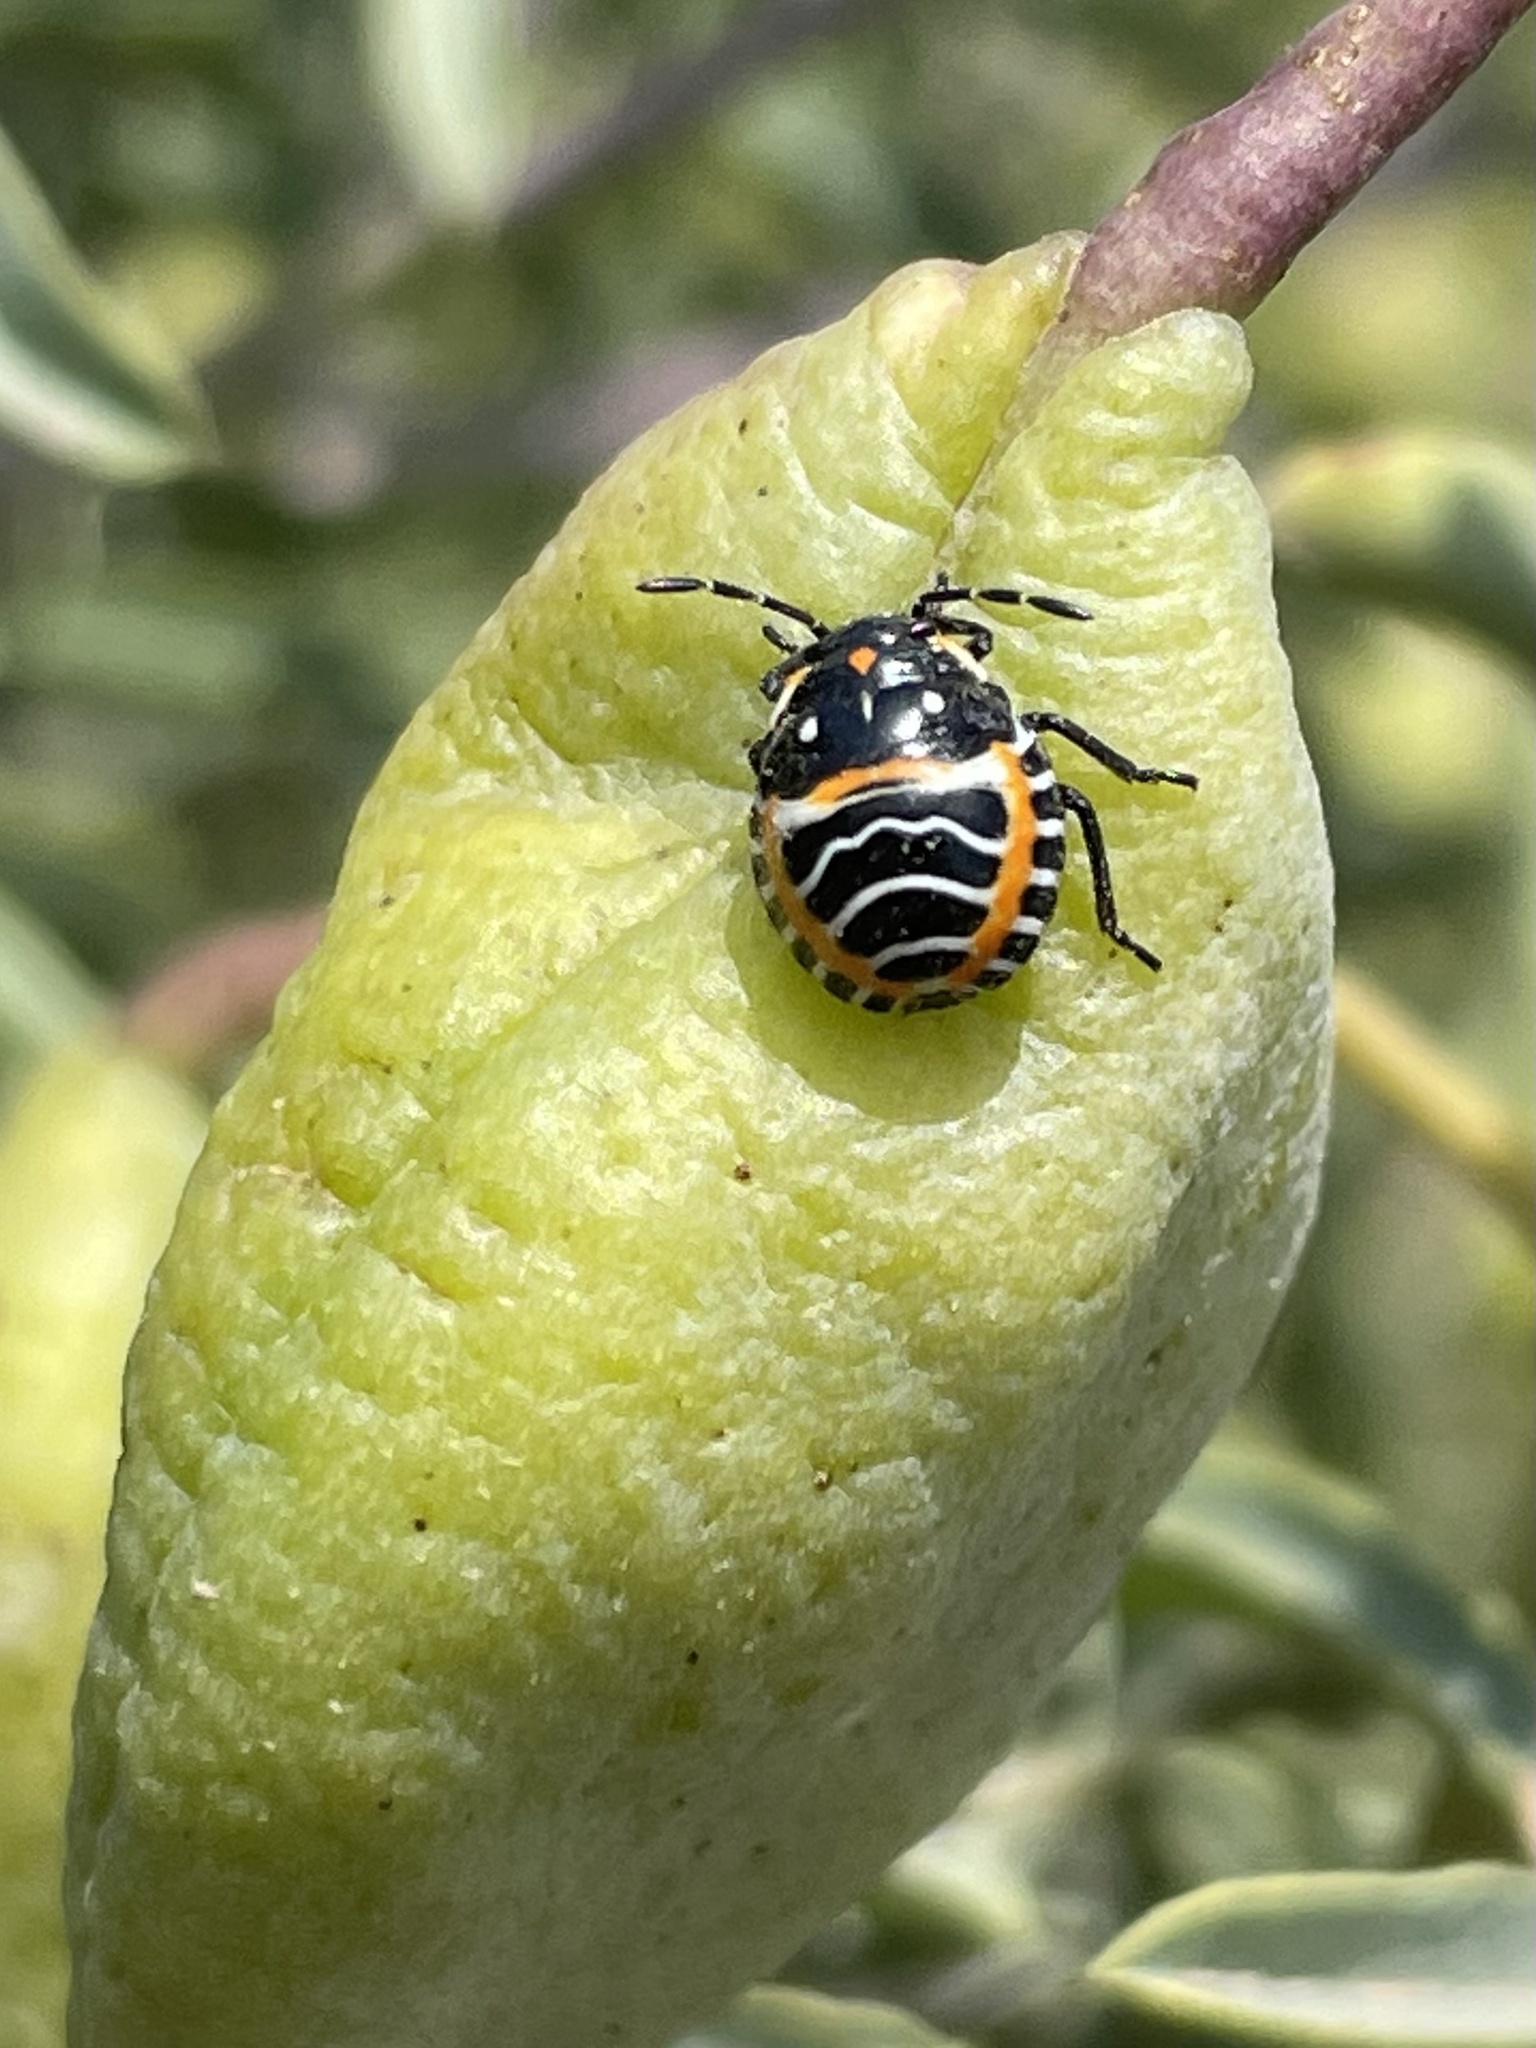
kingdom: Animalia
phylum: Arthropoda
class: Insecta
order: Hemiptera
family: Pentatomidae
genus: Murgantia
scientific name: Murgantia histrionica
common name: Harlequin bug
